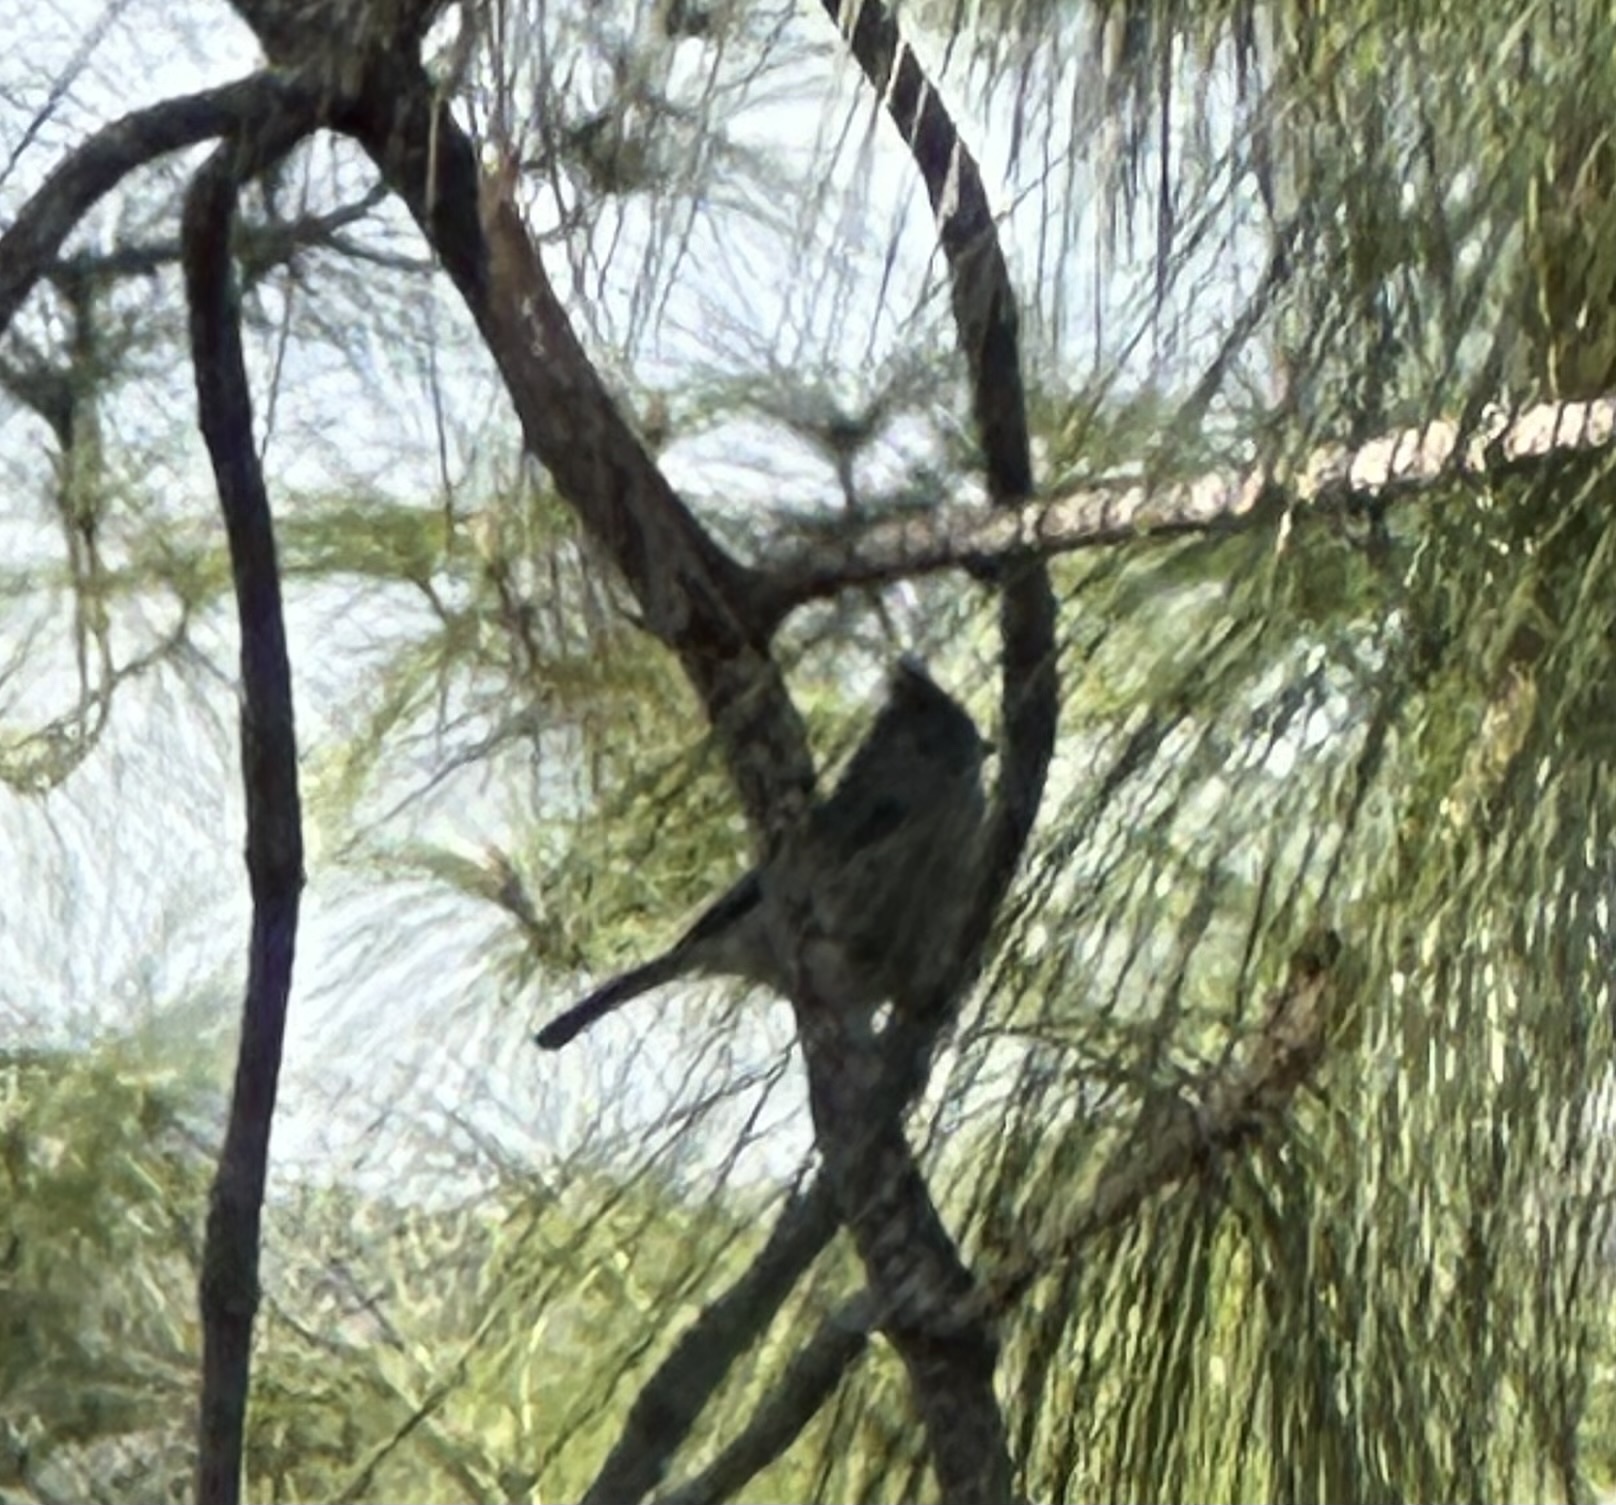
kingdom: Animalia
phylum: Chordata
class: Aves
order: Passeriformes
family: Paridae
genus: Baeolophus
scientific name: Baeolophus inornatus
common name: Oak titmouse
